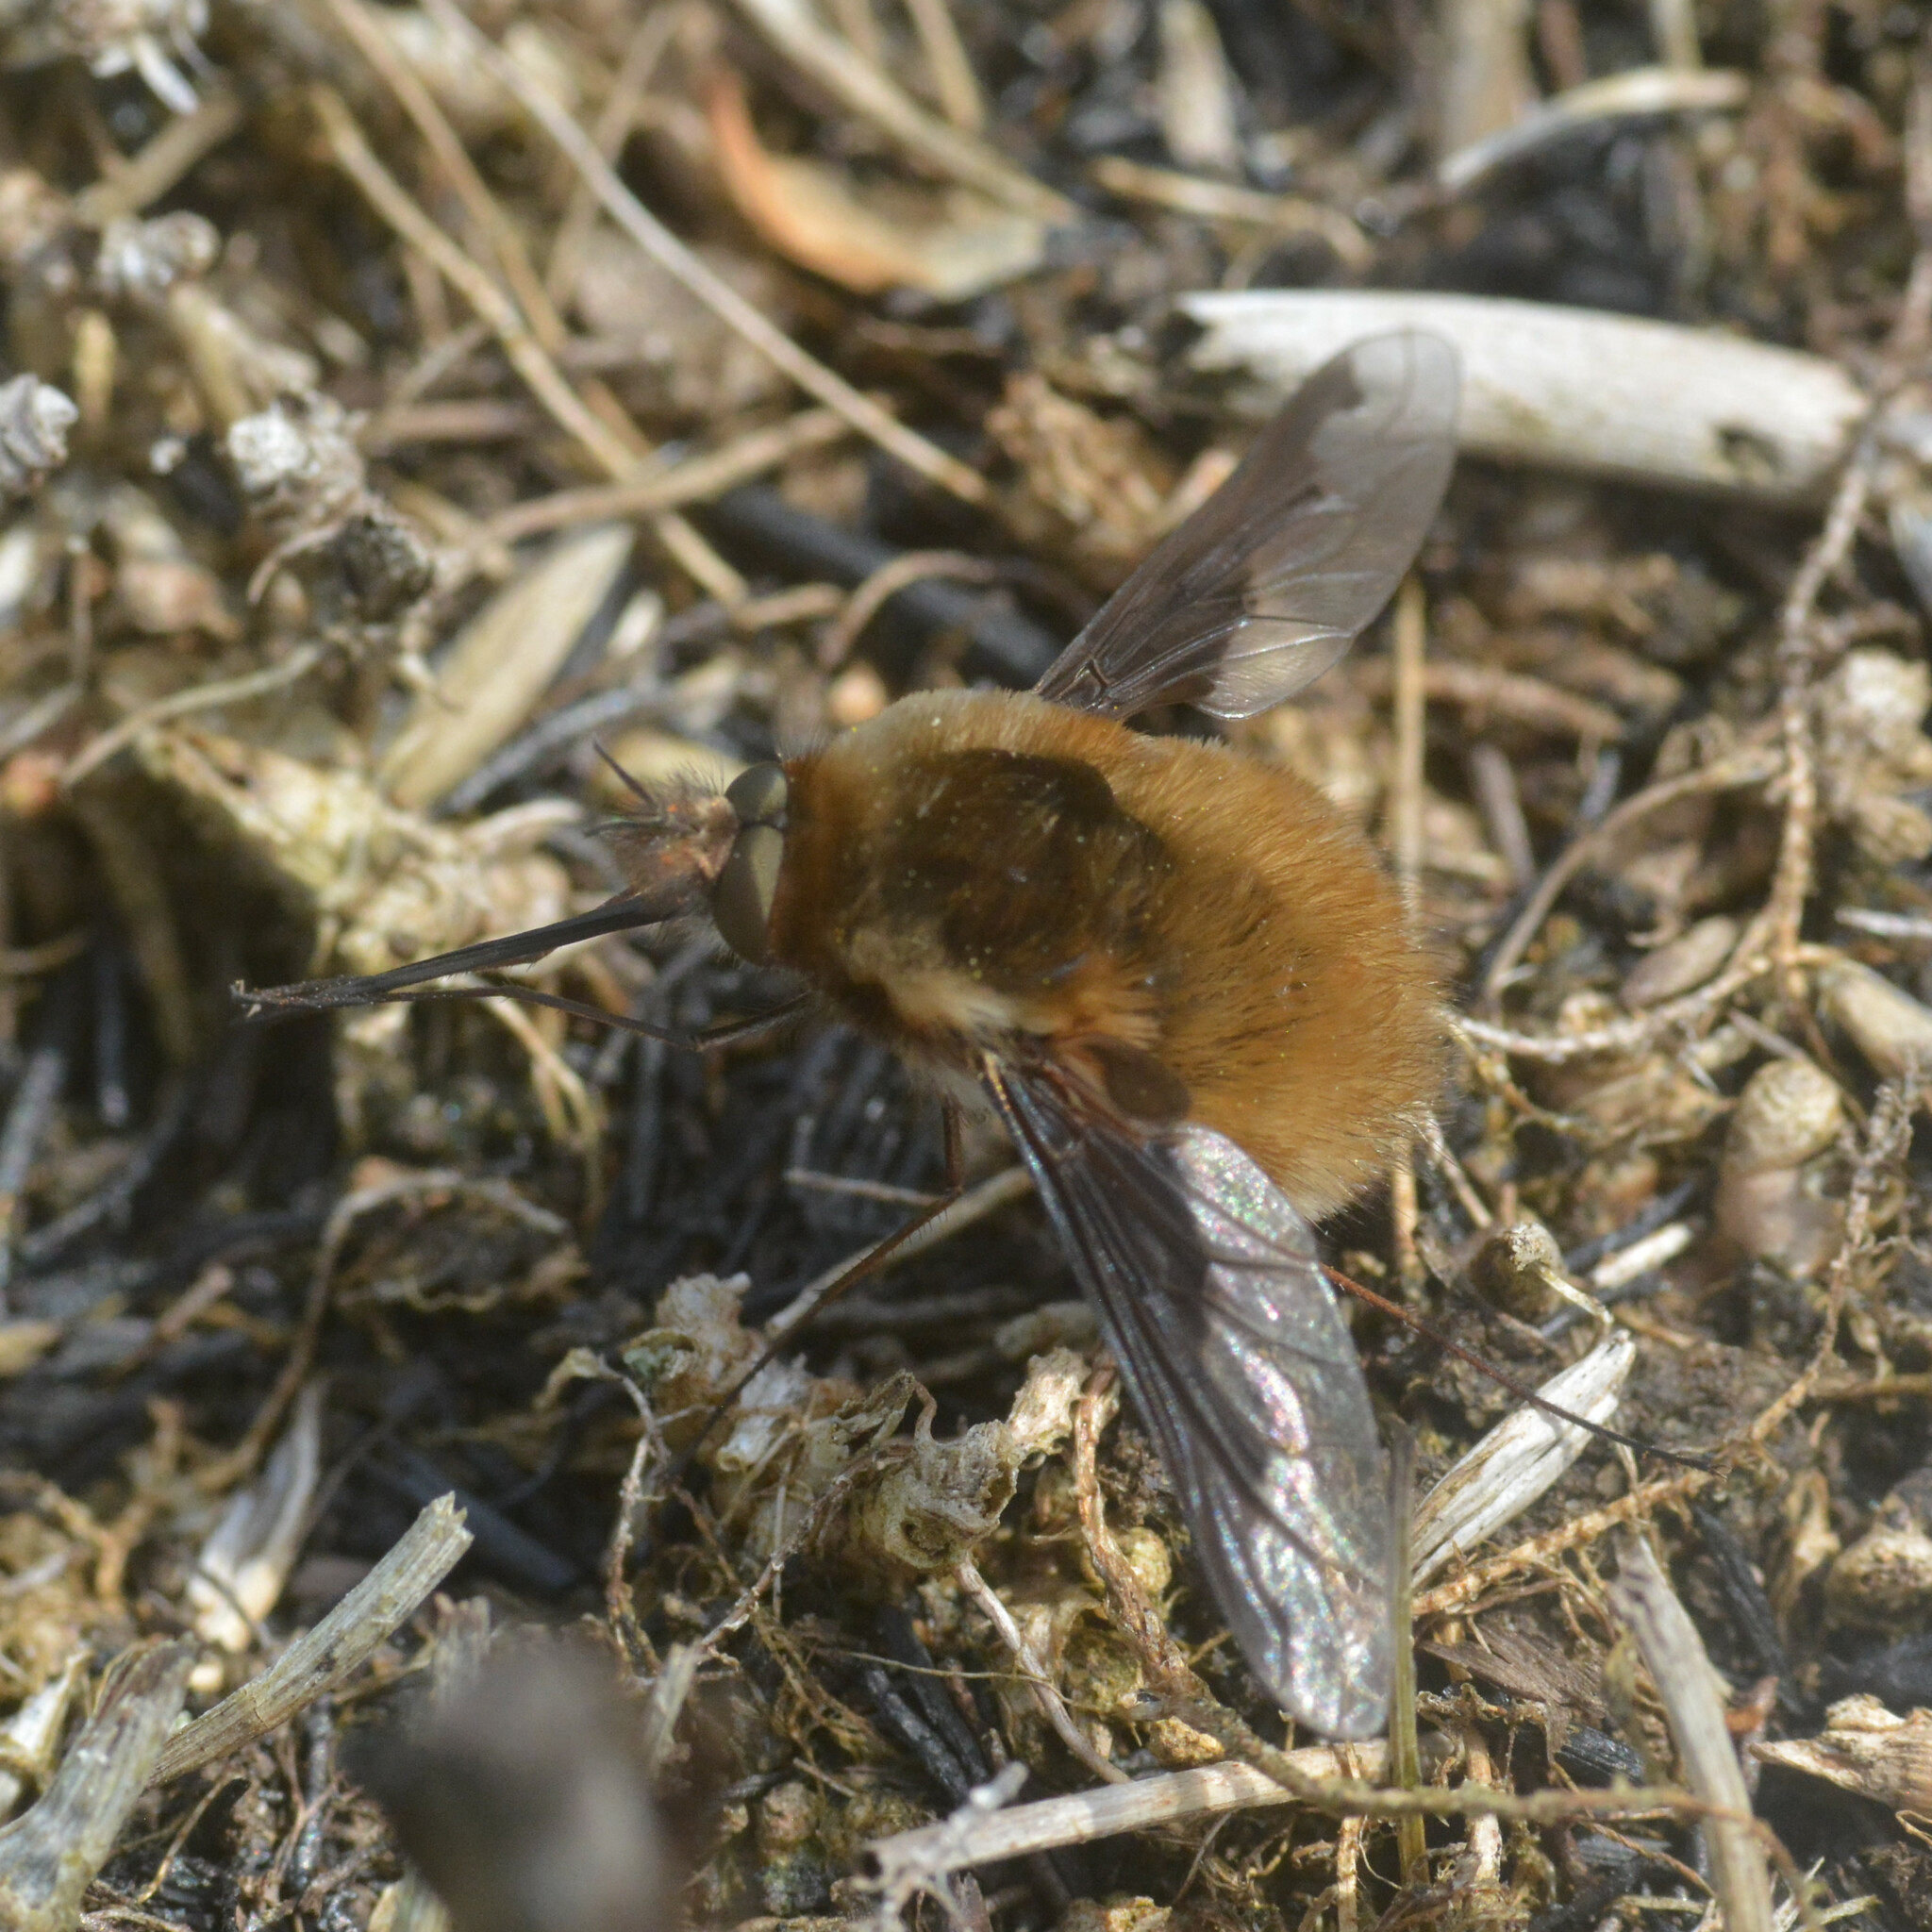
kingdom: Animalia
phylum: Arthropoda
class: Insecta
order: Diptera
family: Bombyliidae
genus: Bombylius
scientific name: Bombylius major
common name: Bee fly
